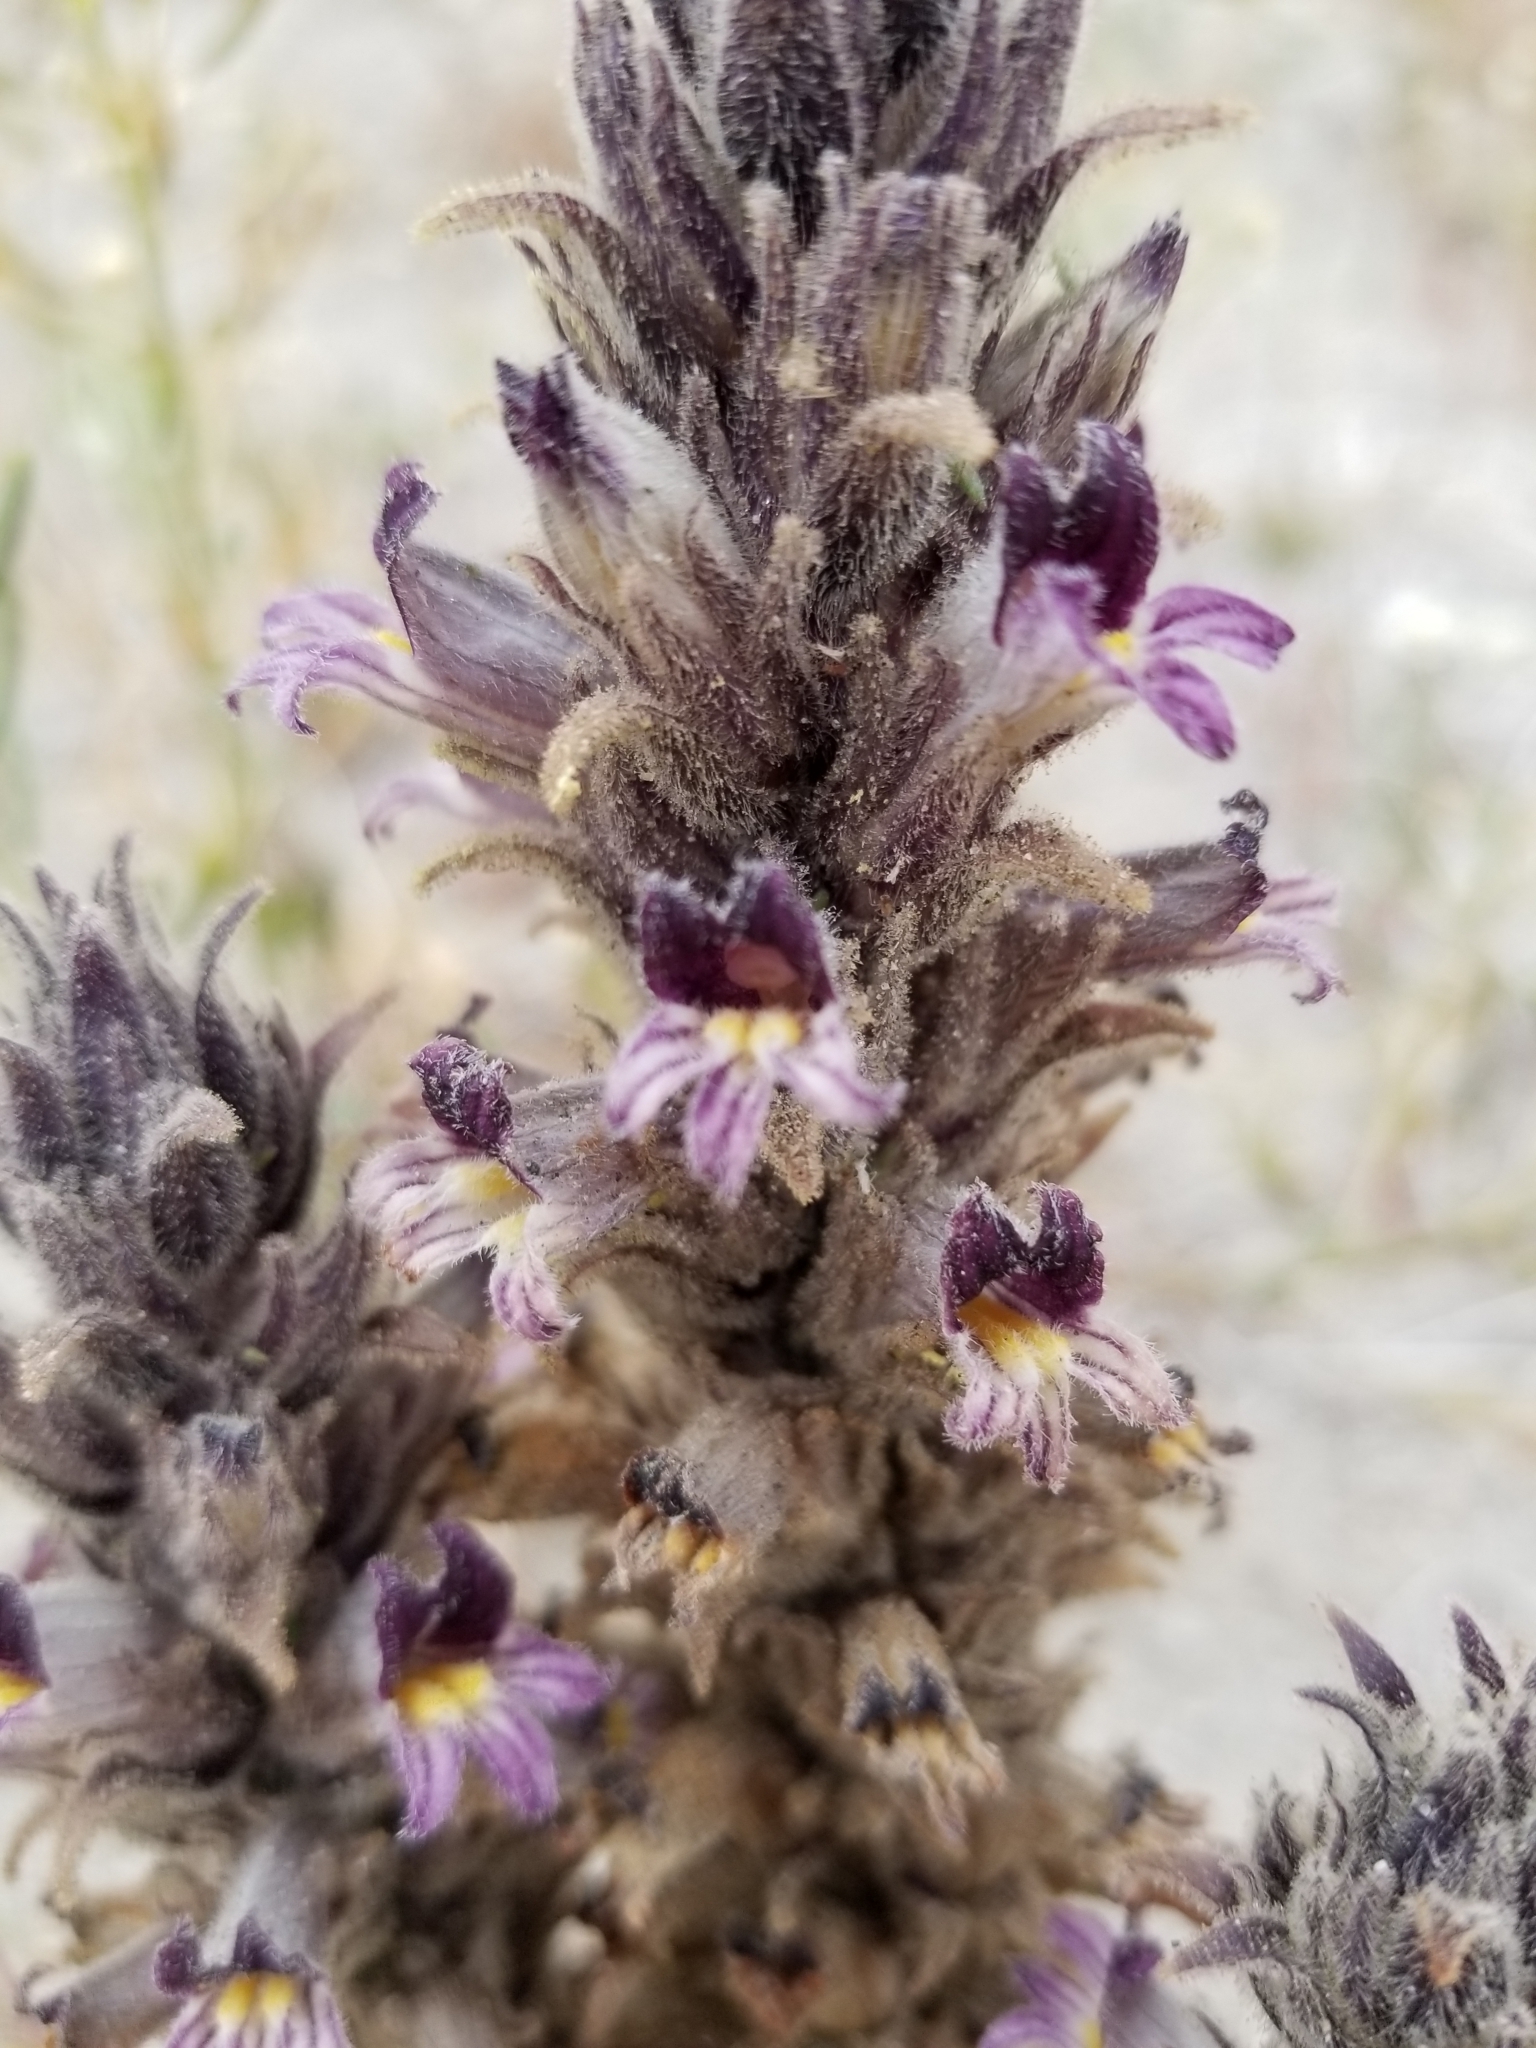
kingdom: Plantae
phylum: Tracheophyta
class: Magnoliopsida
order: Lamiales
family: Orobanchaceae
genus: Aphyllon
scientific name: Aphyllon cooperi
